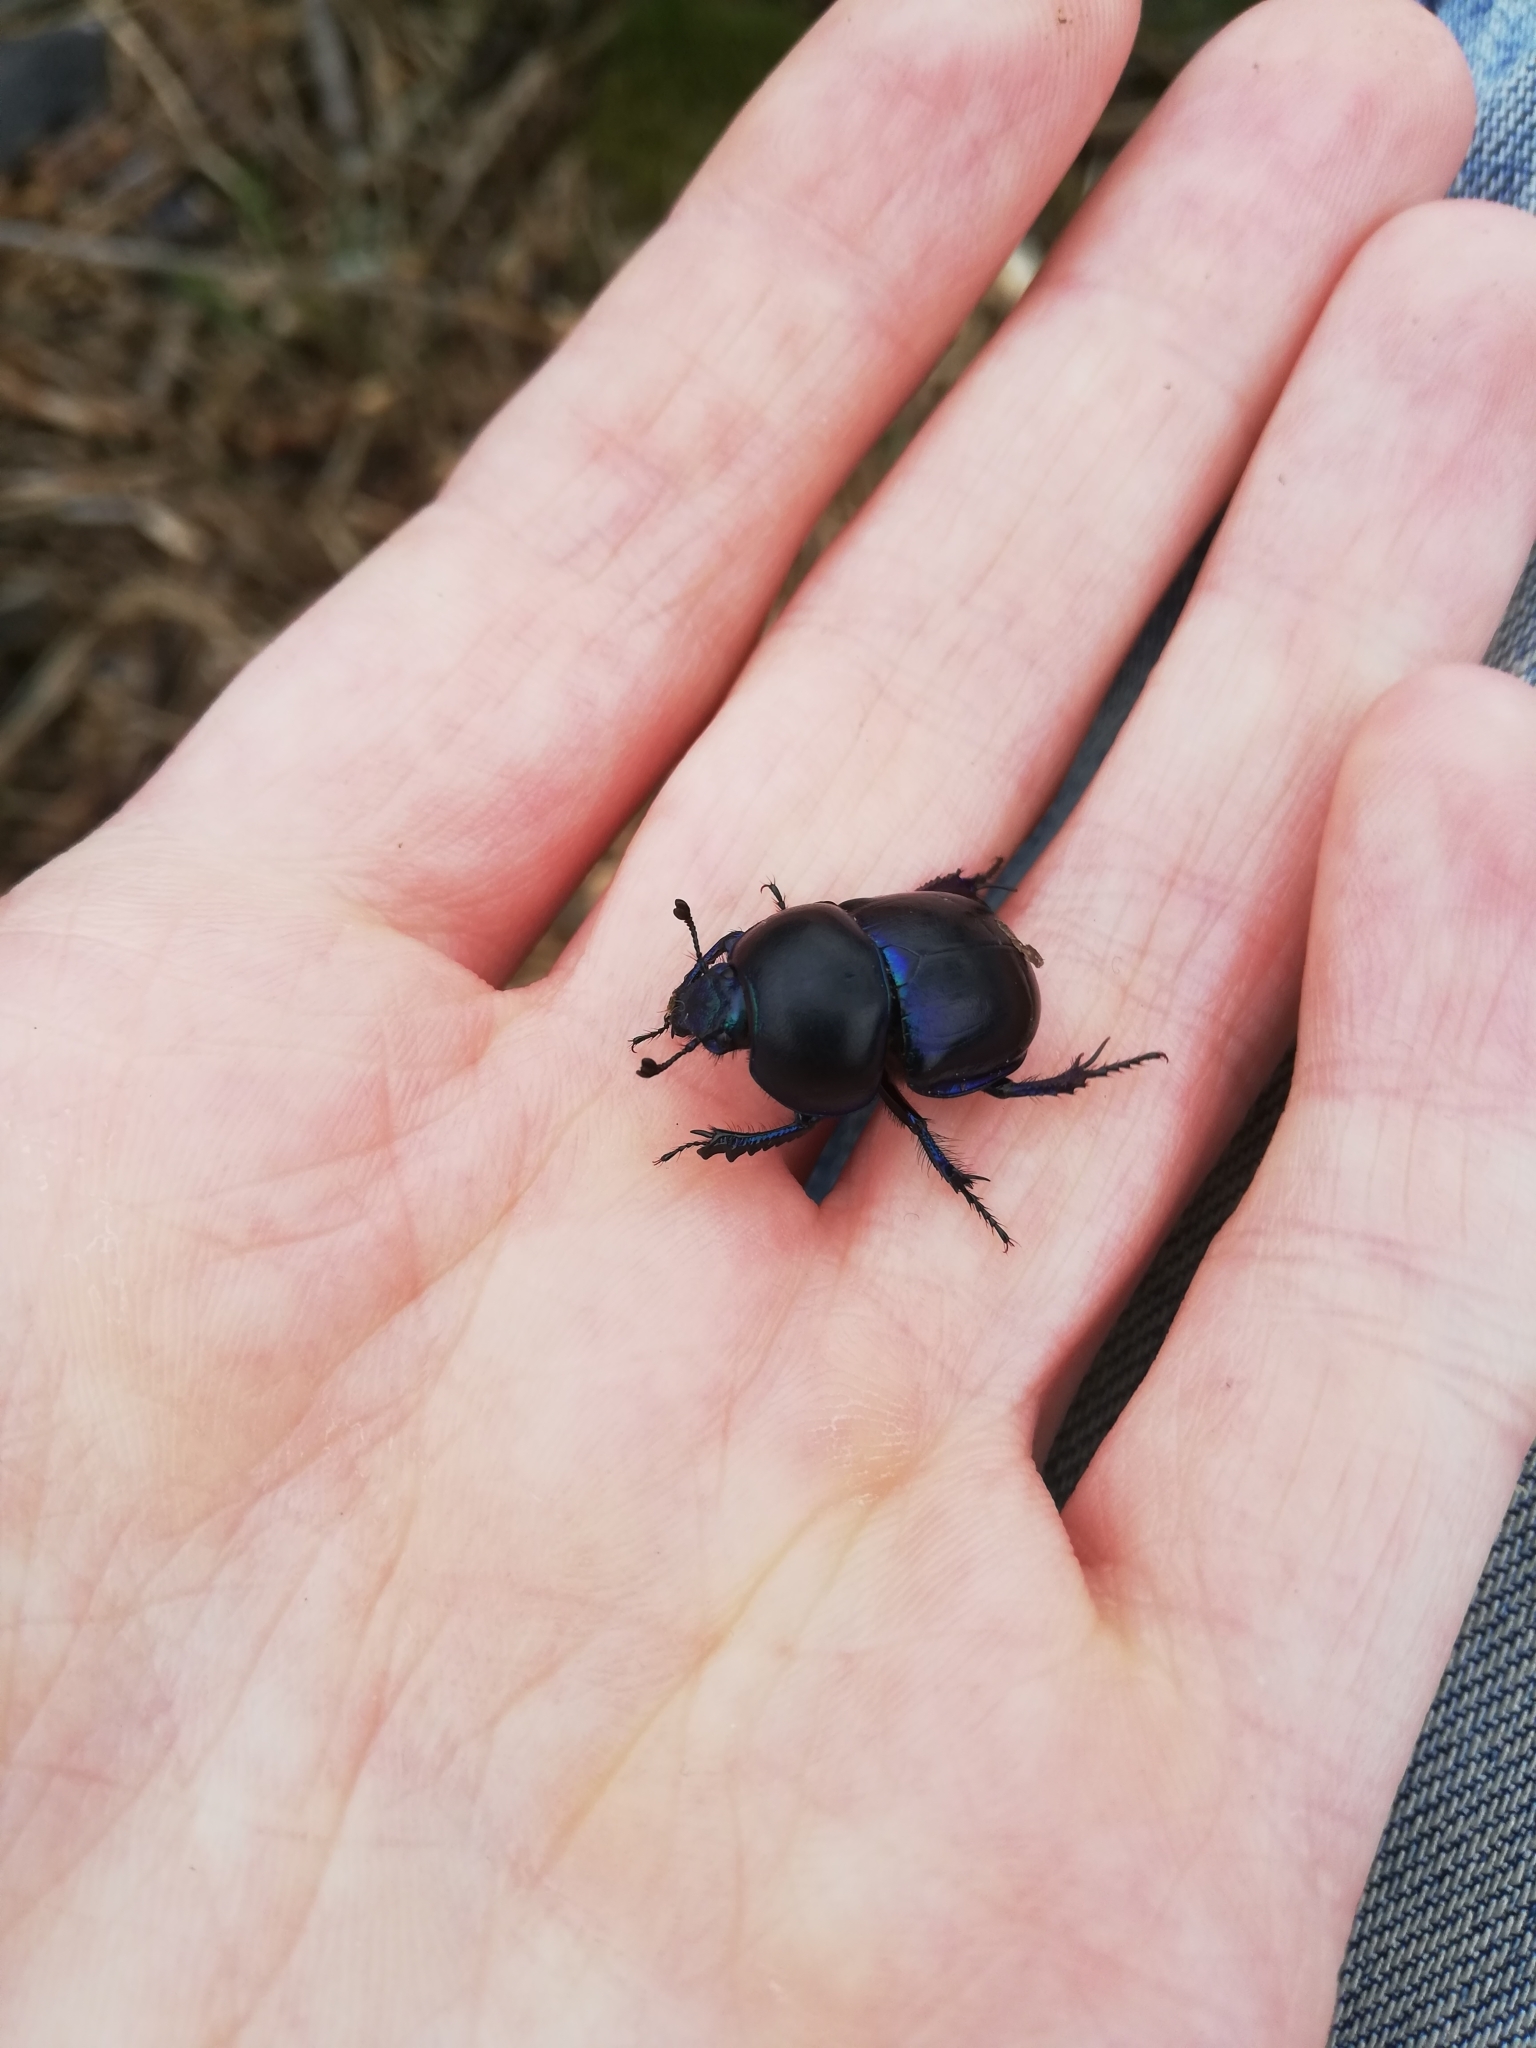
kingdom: Animalia
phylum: Arthropoda
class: Insecta
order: Coleoptera
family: Geotrupidae
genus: Trypocopris
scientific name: Trypocopris vernalis
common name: Spring dumbledor
